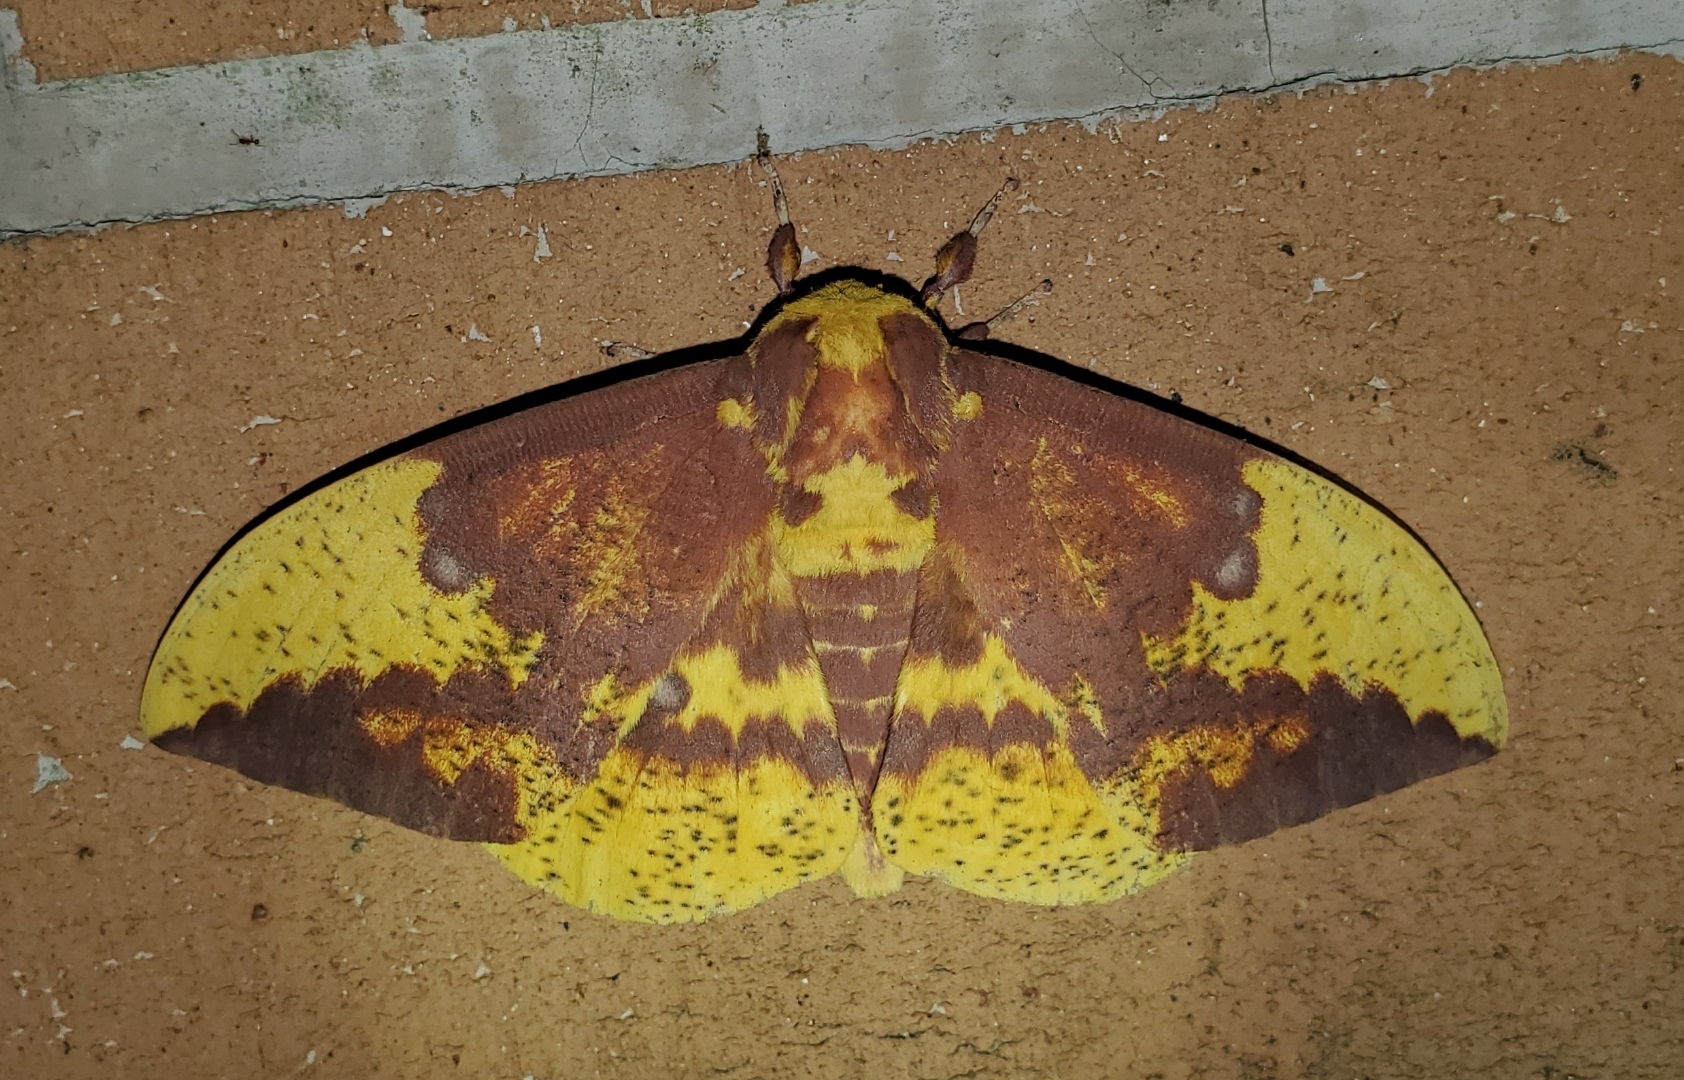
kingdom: Animalia
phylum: Arthropoda
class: Insecta
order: Lepidoptera
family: Saturniidae
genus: Eacles
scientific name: Eacles imperialis
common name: Imperial moth
